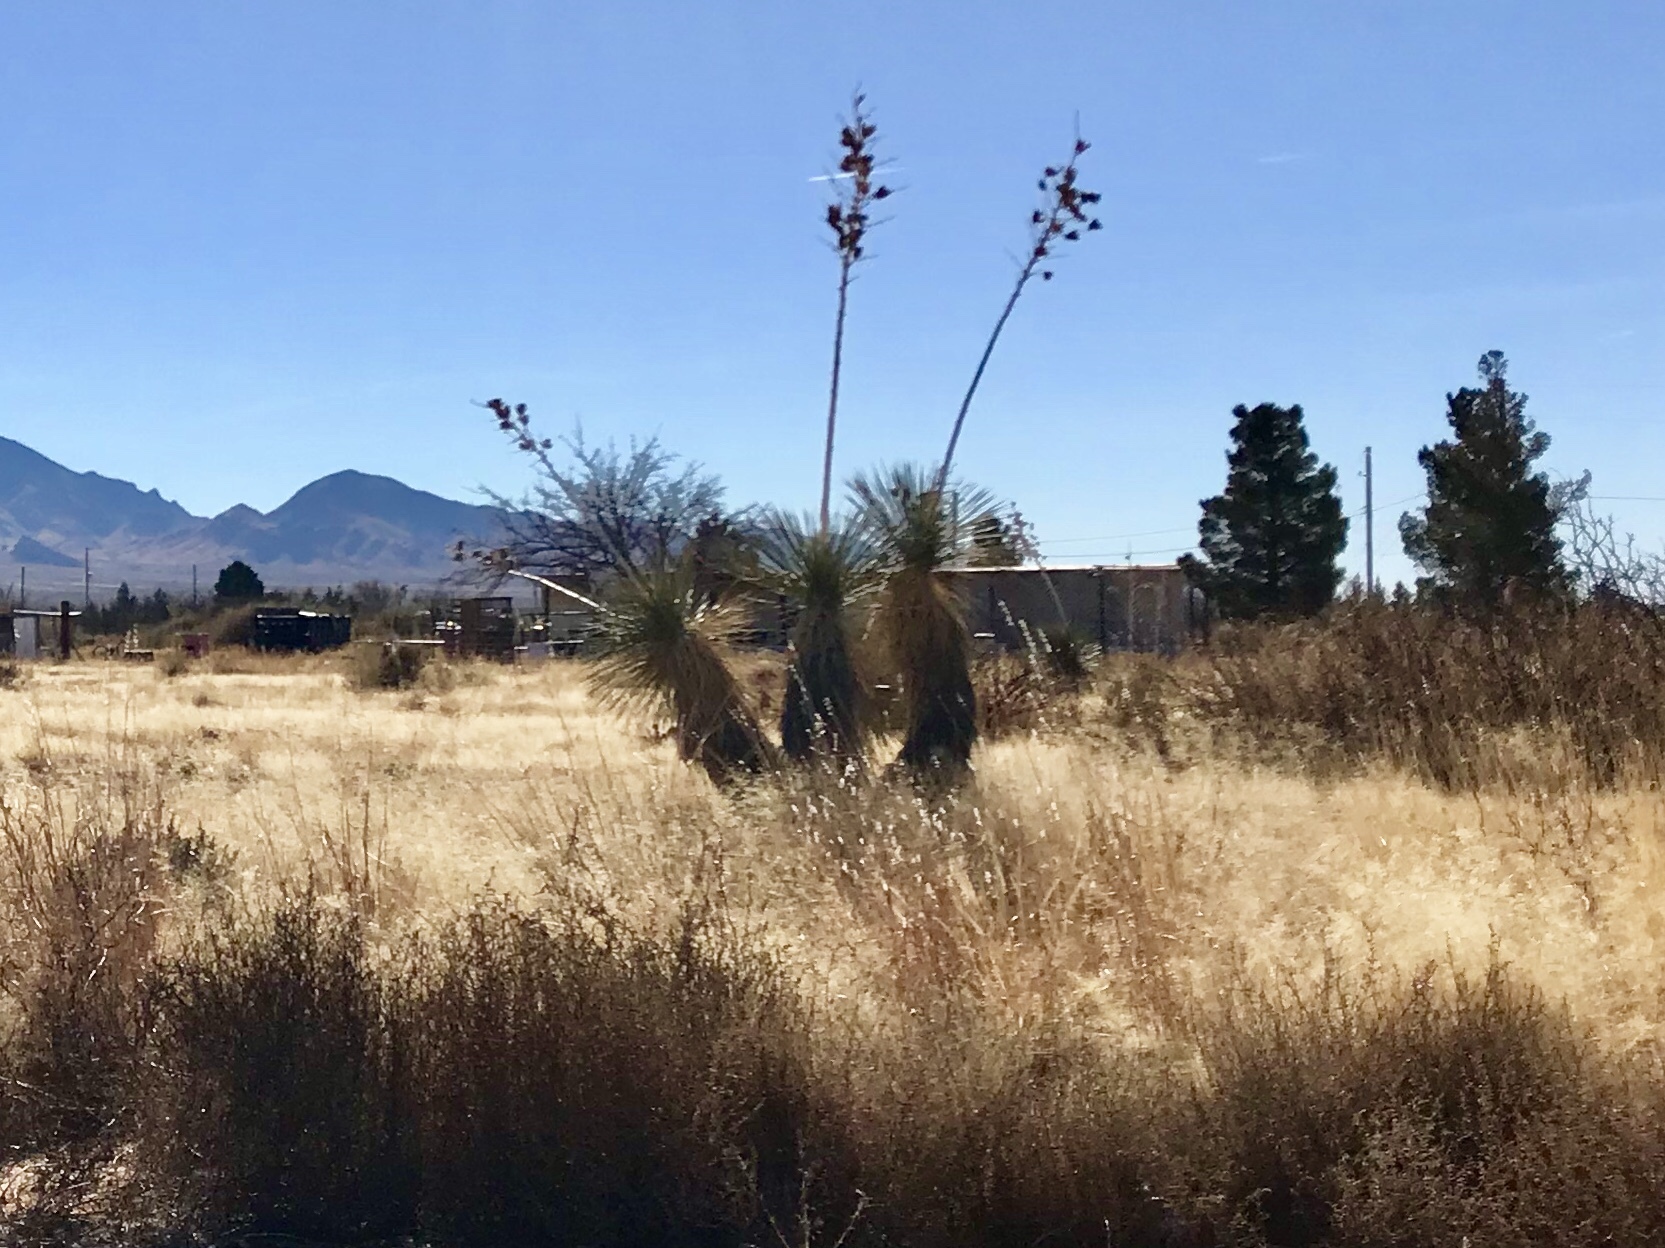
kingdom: Plantae
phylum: Tracheophyta
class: Liliopsida
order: Asparagales
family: Asparagaceae
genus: Yucca
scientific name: Yucca elata
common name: Palmella
